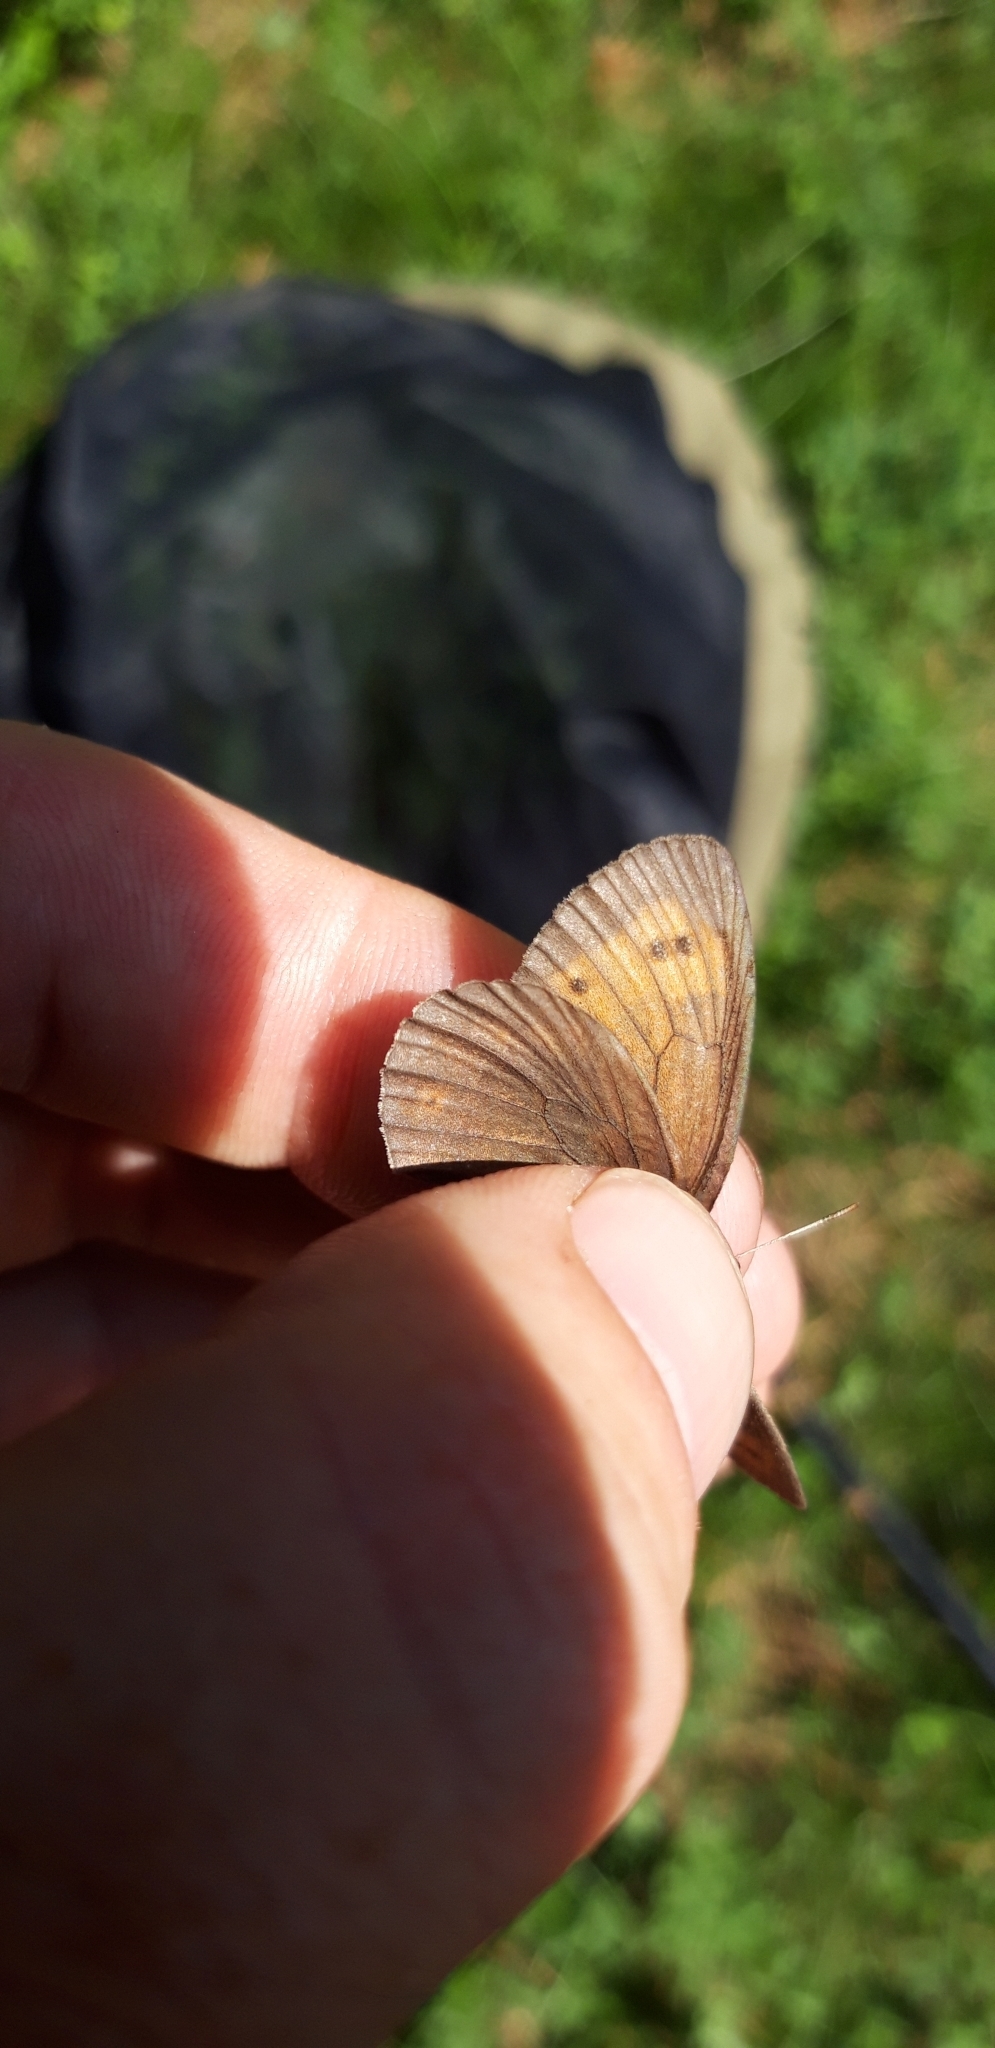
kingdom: Animalia
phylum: Arthropoda
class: Insecta
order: Lepidoptera
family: Nymphalidae
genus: Erebia
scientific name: Erebia epiphron
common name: Mountain ringlet
